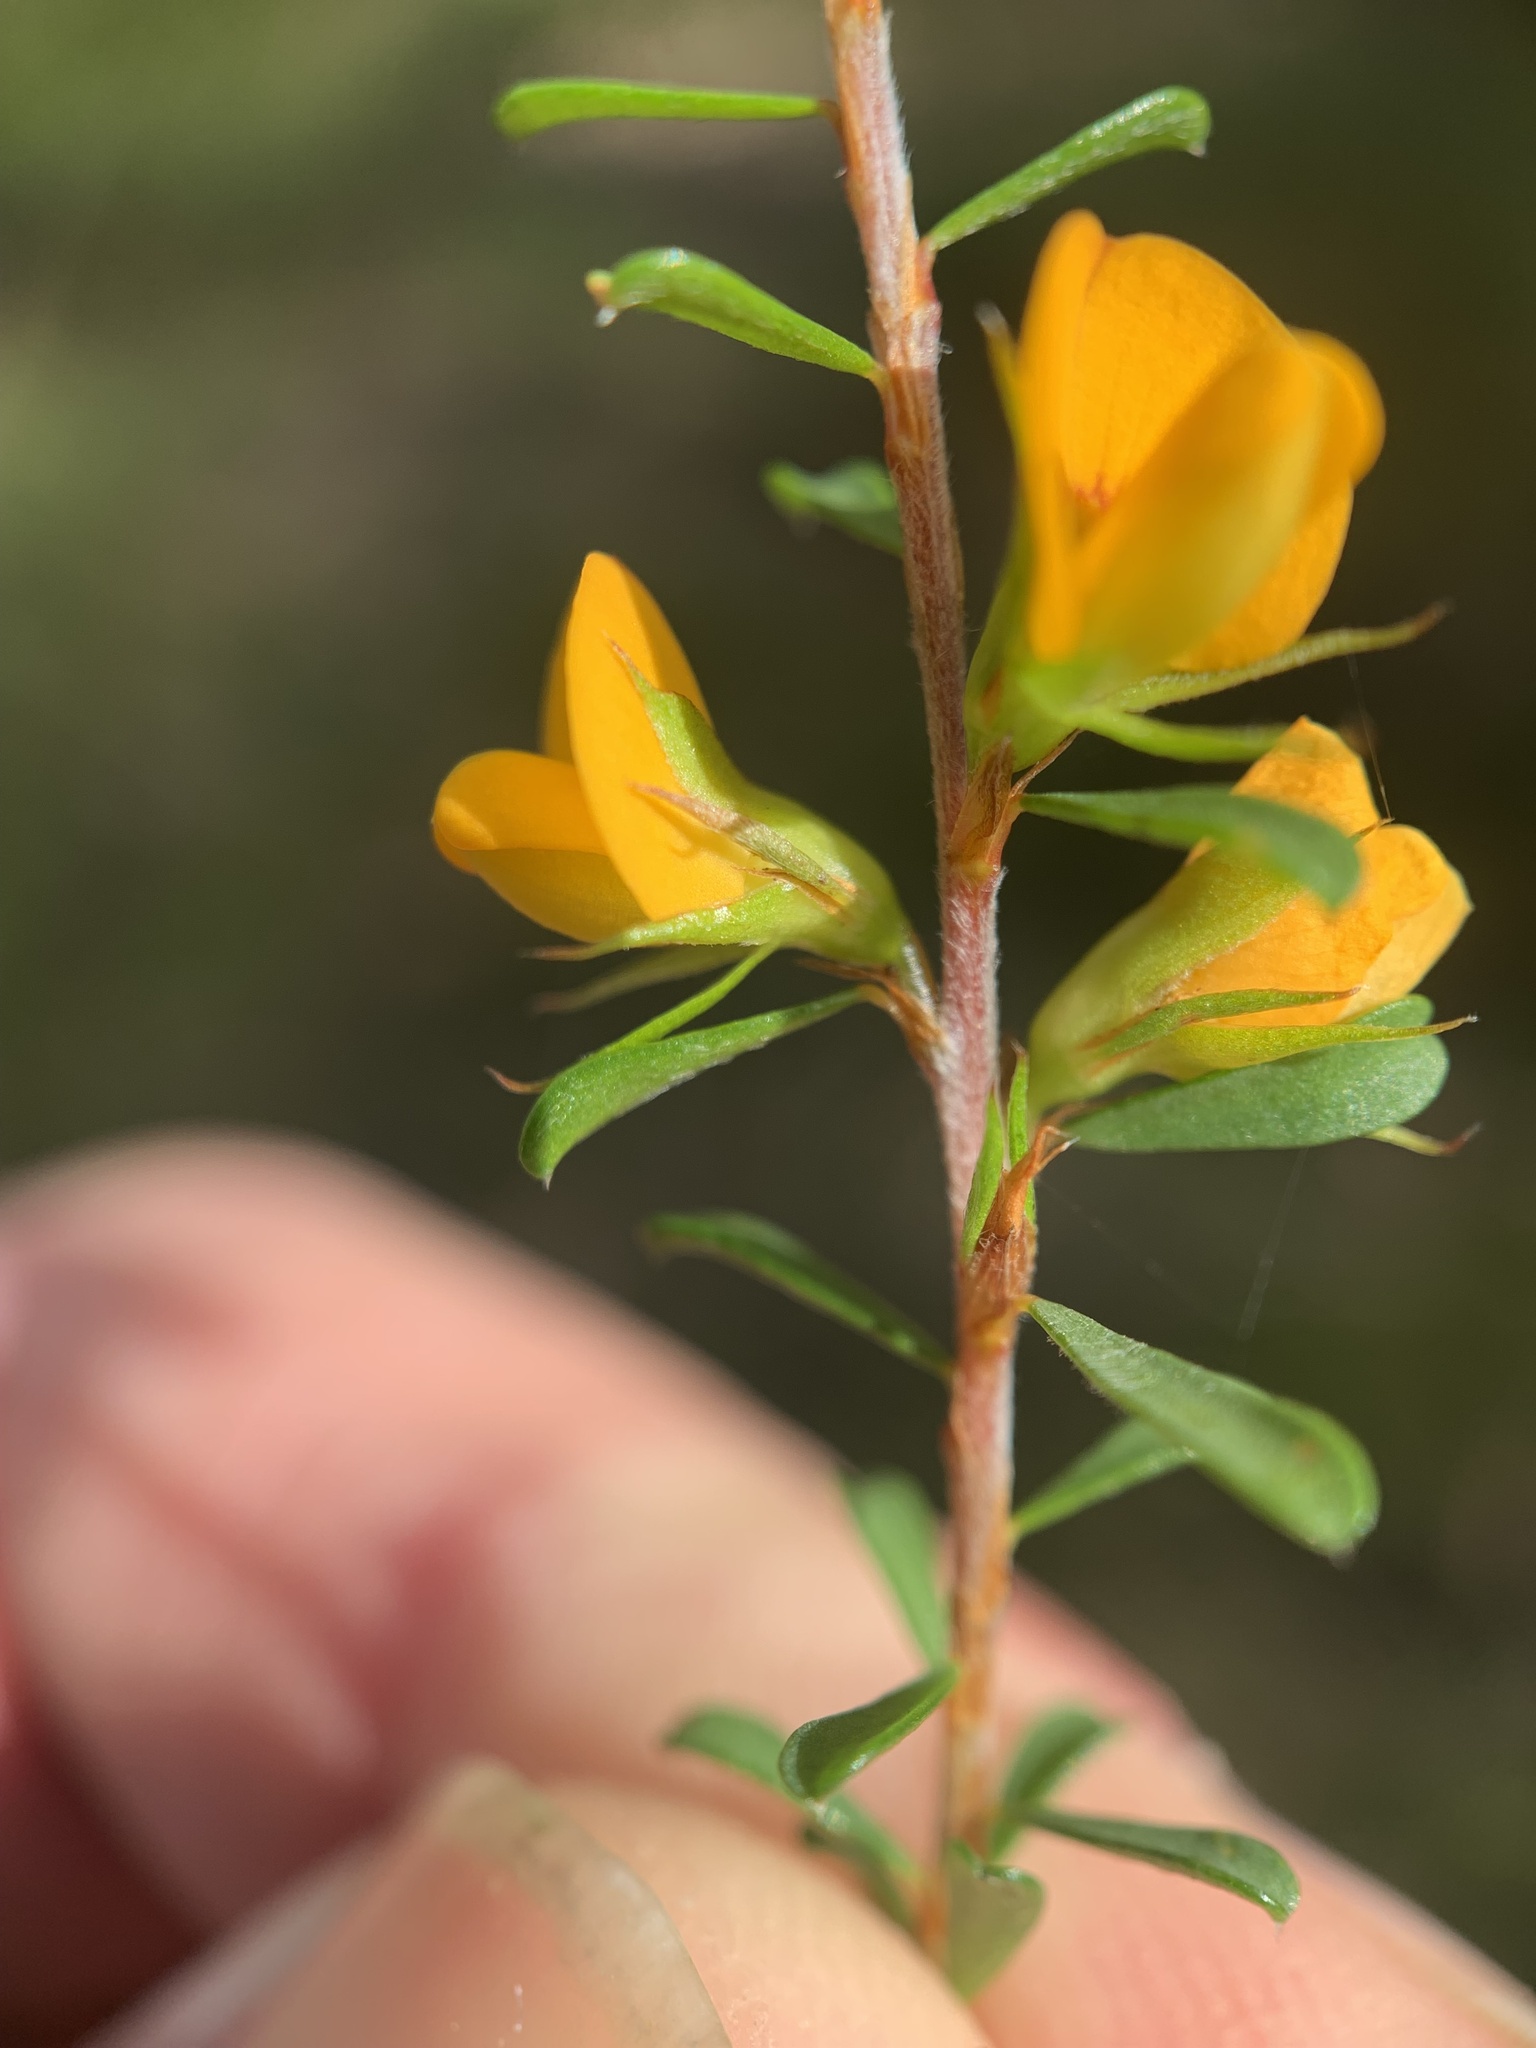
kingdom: Plantae
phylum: Tracheophyta
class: Magnoliopsida
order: Fabales
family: Fabaceae
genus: Pultenaea
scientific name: Pultenaea parviflora
